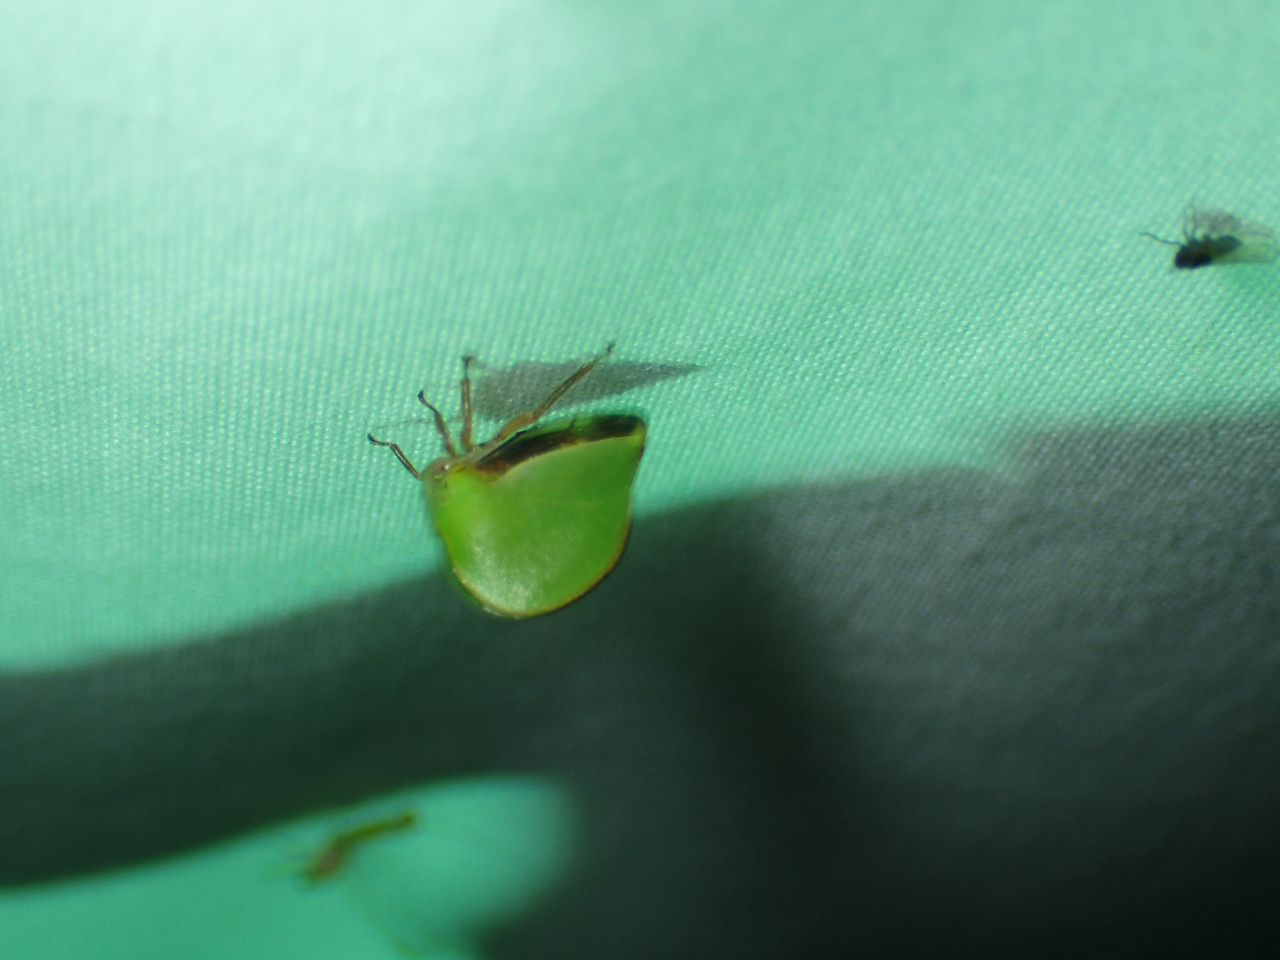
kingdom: Animalia
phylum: Arthropoda
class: Insecta
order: Hemiptera
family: Membracidae
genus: Archasia
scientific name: Archasia belfragei
